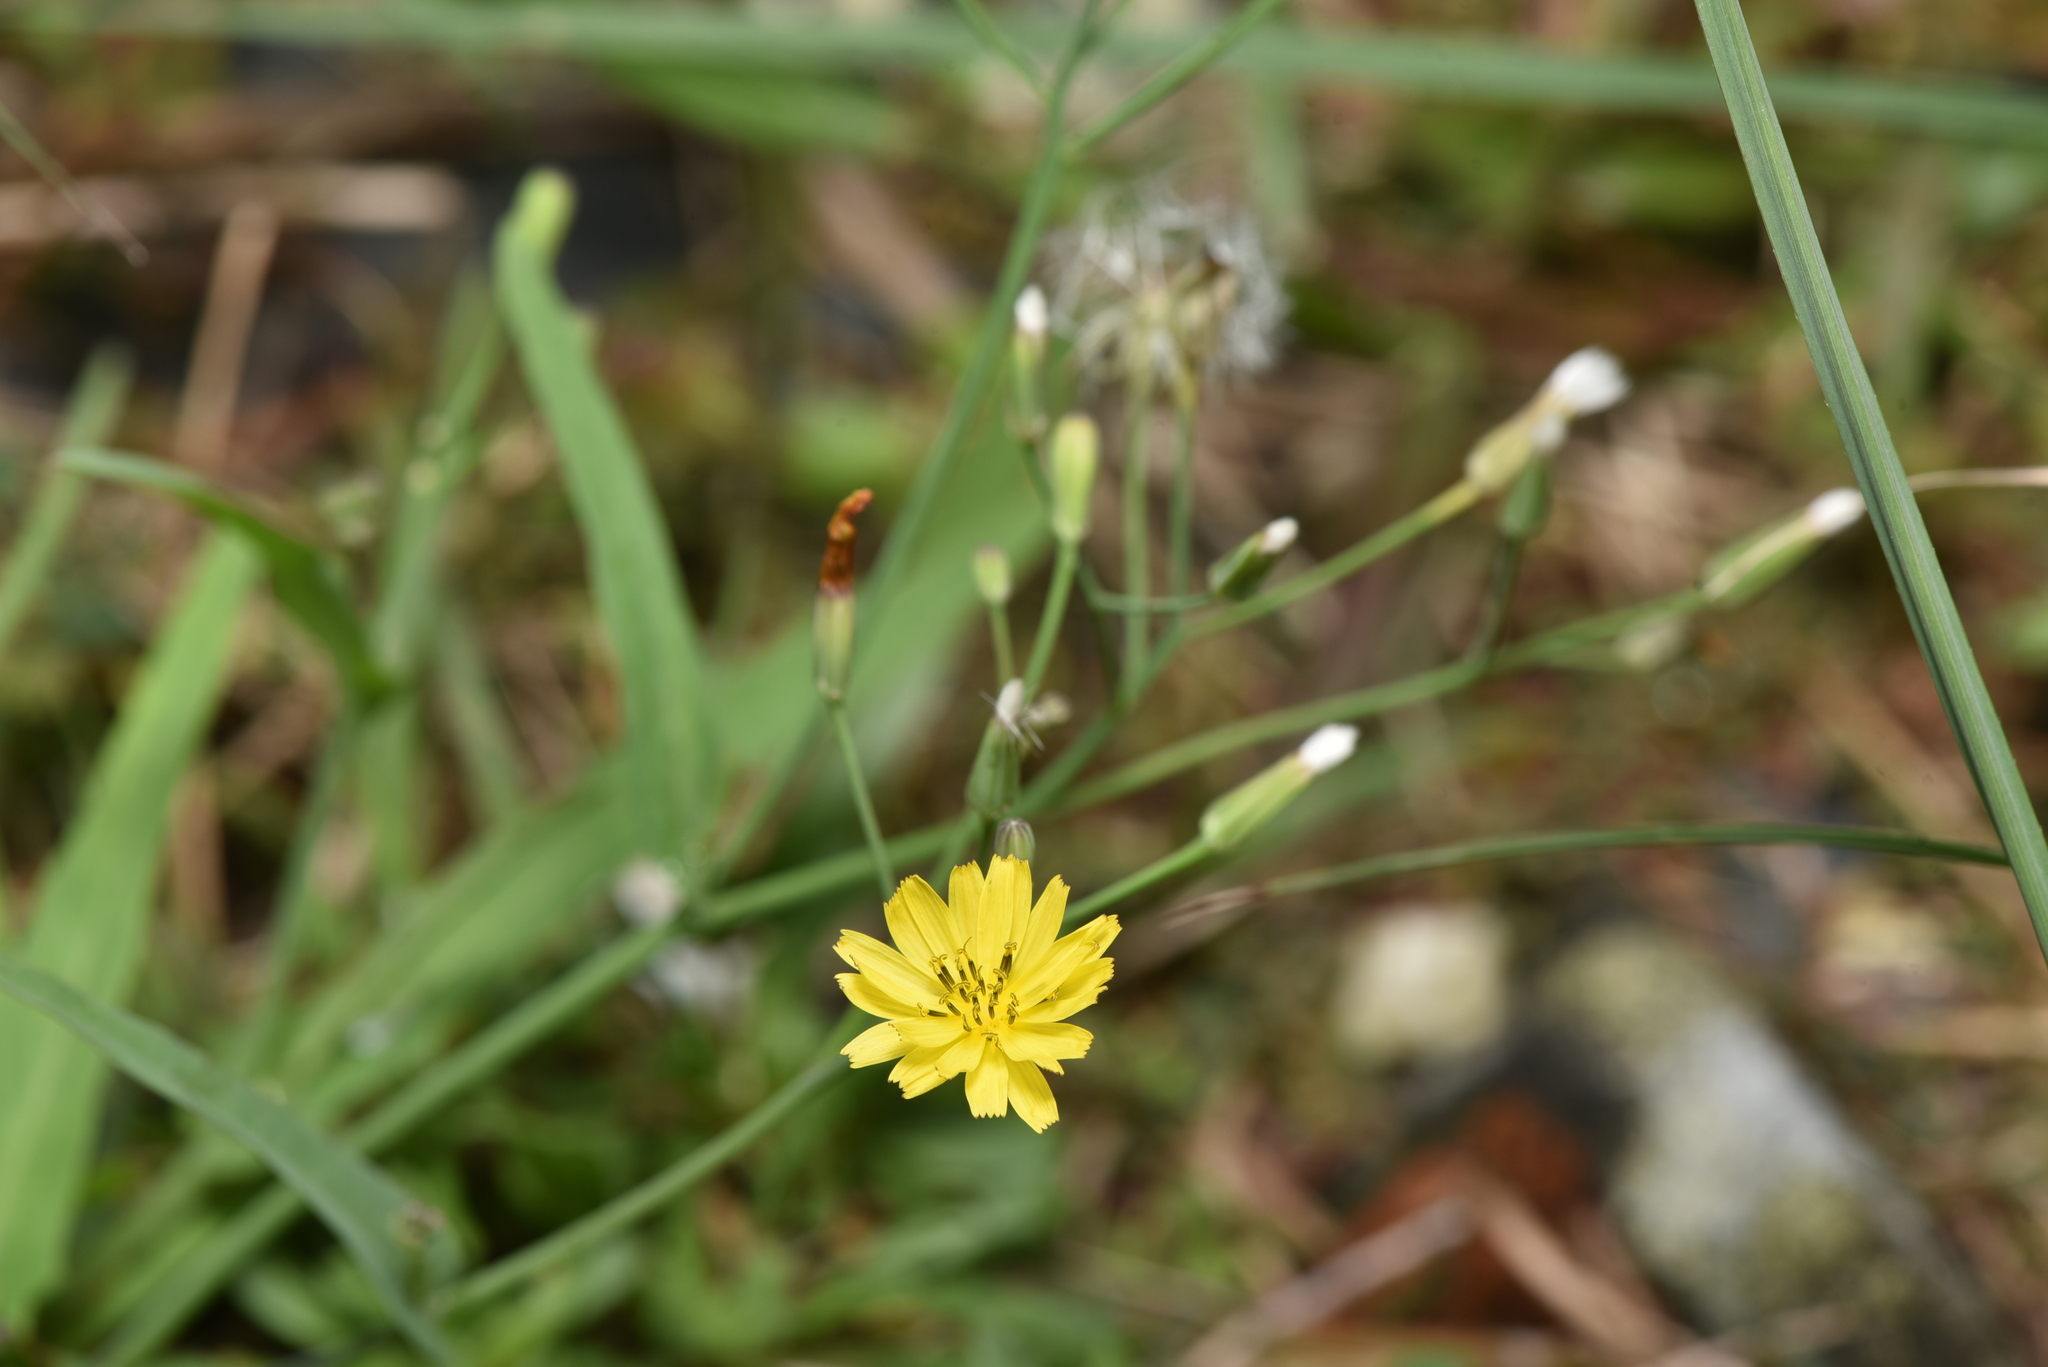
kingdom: Plantae
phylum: Tracheophyta
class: Magnoliopsida
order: Asterales
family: Asteraceae
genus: Ixeris
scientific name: Ixeris chinensis
